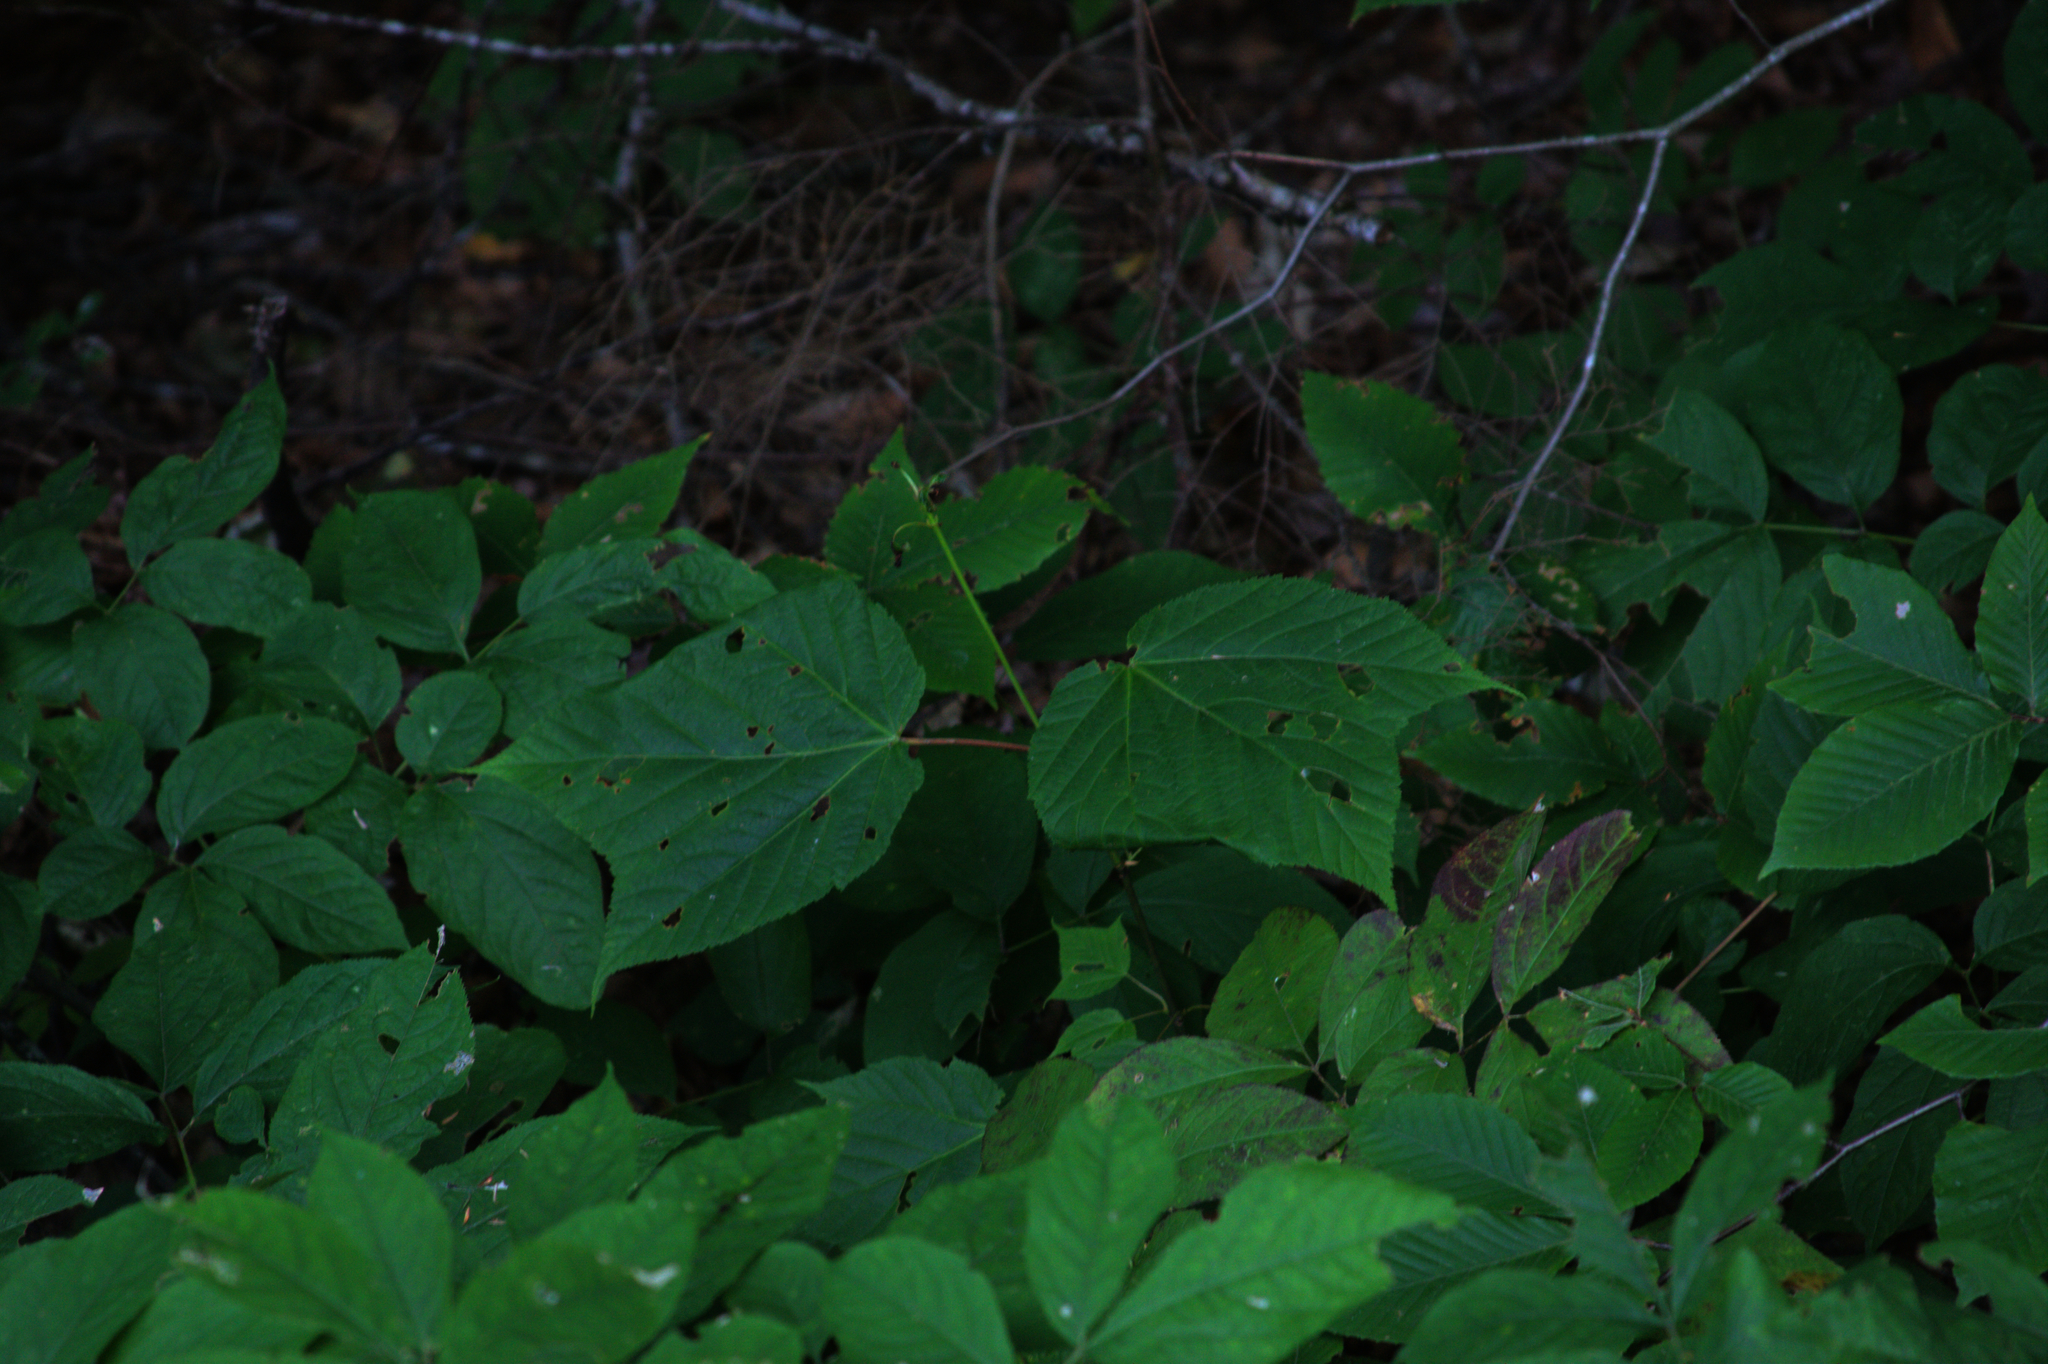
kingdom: Plantae
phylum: Tracheophyta
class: Magnoliopsida
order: Sapindales
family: Sapindaceae
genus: Acer
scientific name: Acer pensylvanicum
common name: Moosewood
